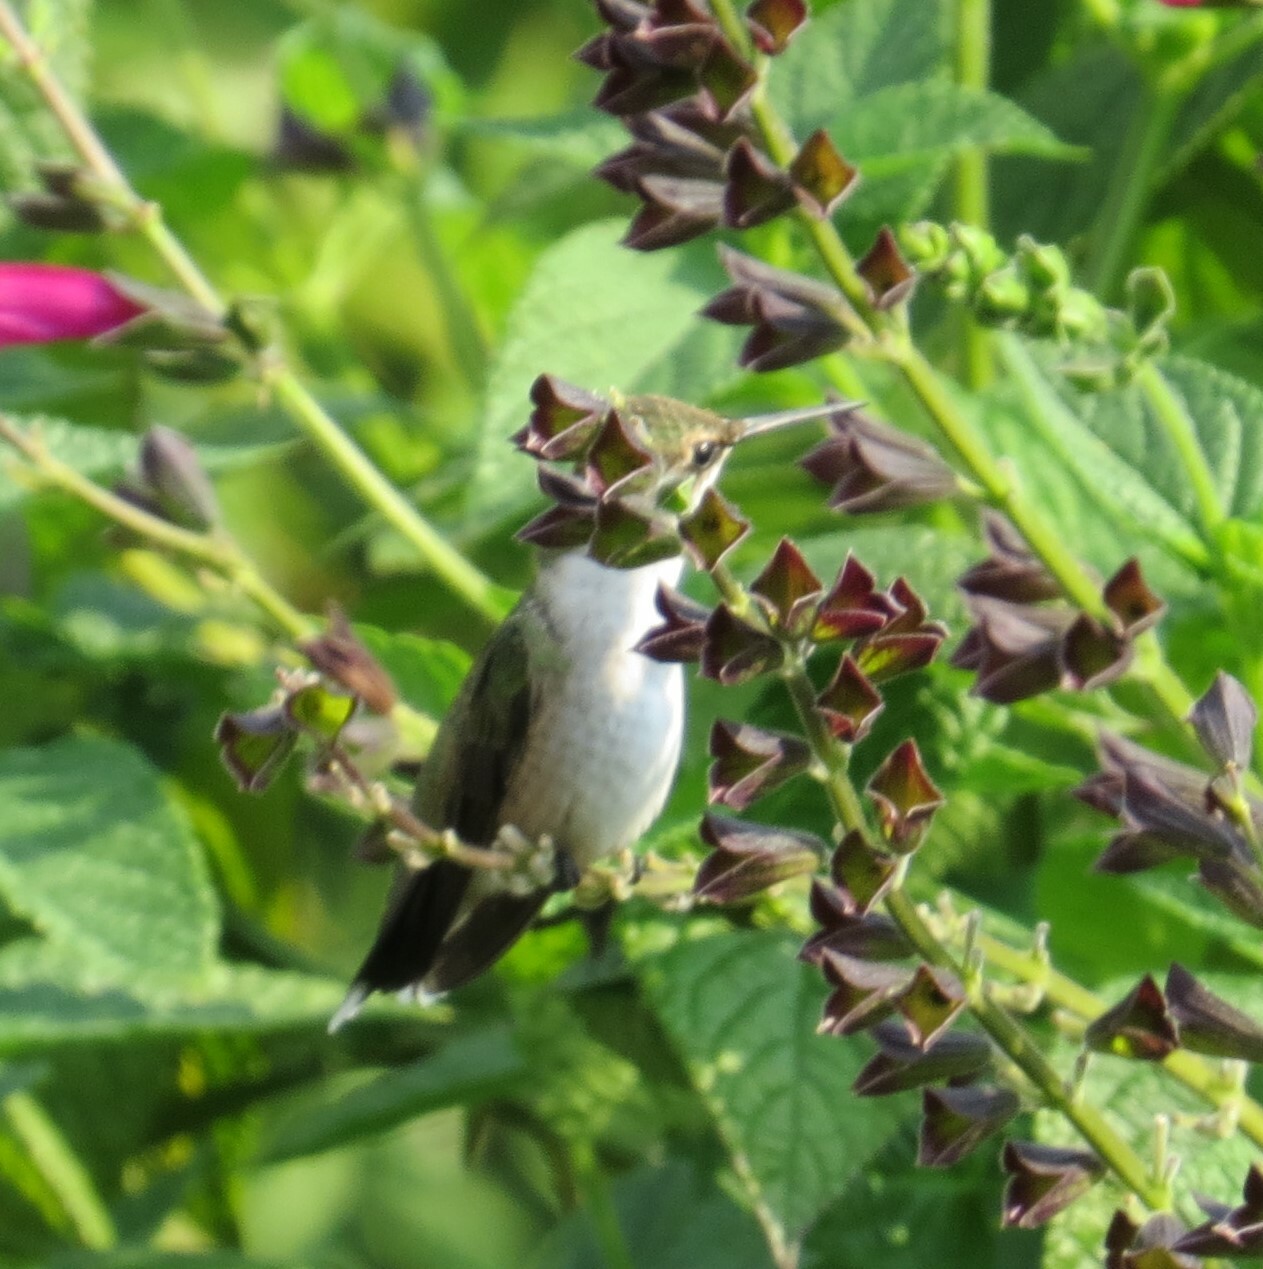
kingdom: Animalia
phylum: Chordata
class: Aves
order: Apodiformes
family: Trochilidae
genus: Archilochus
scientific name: Archilochus colubris
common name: Ruby-throated hummingbird
